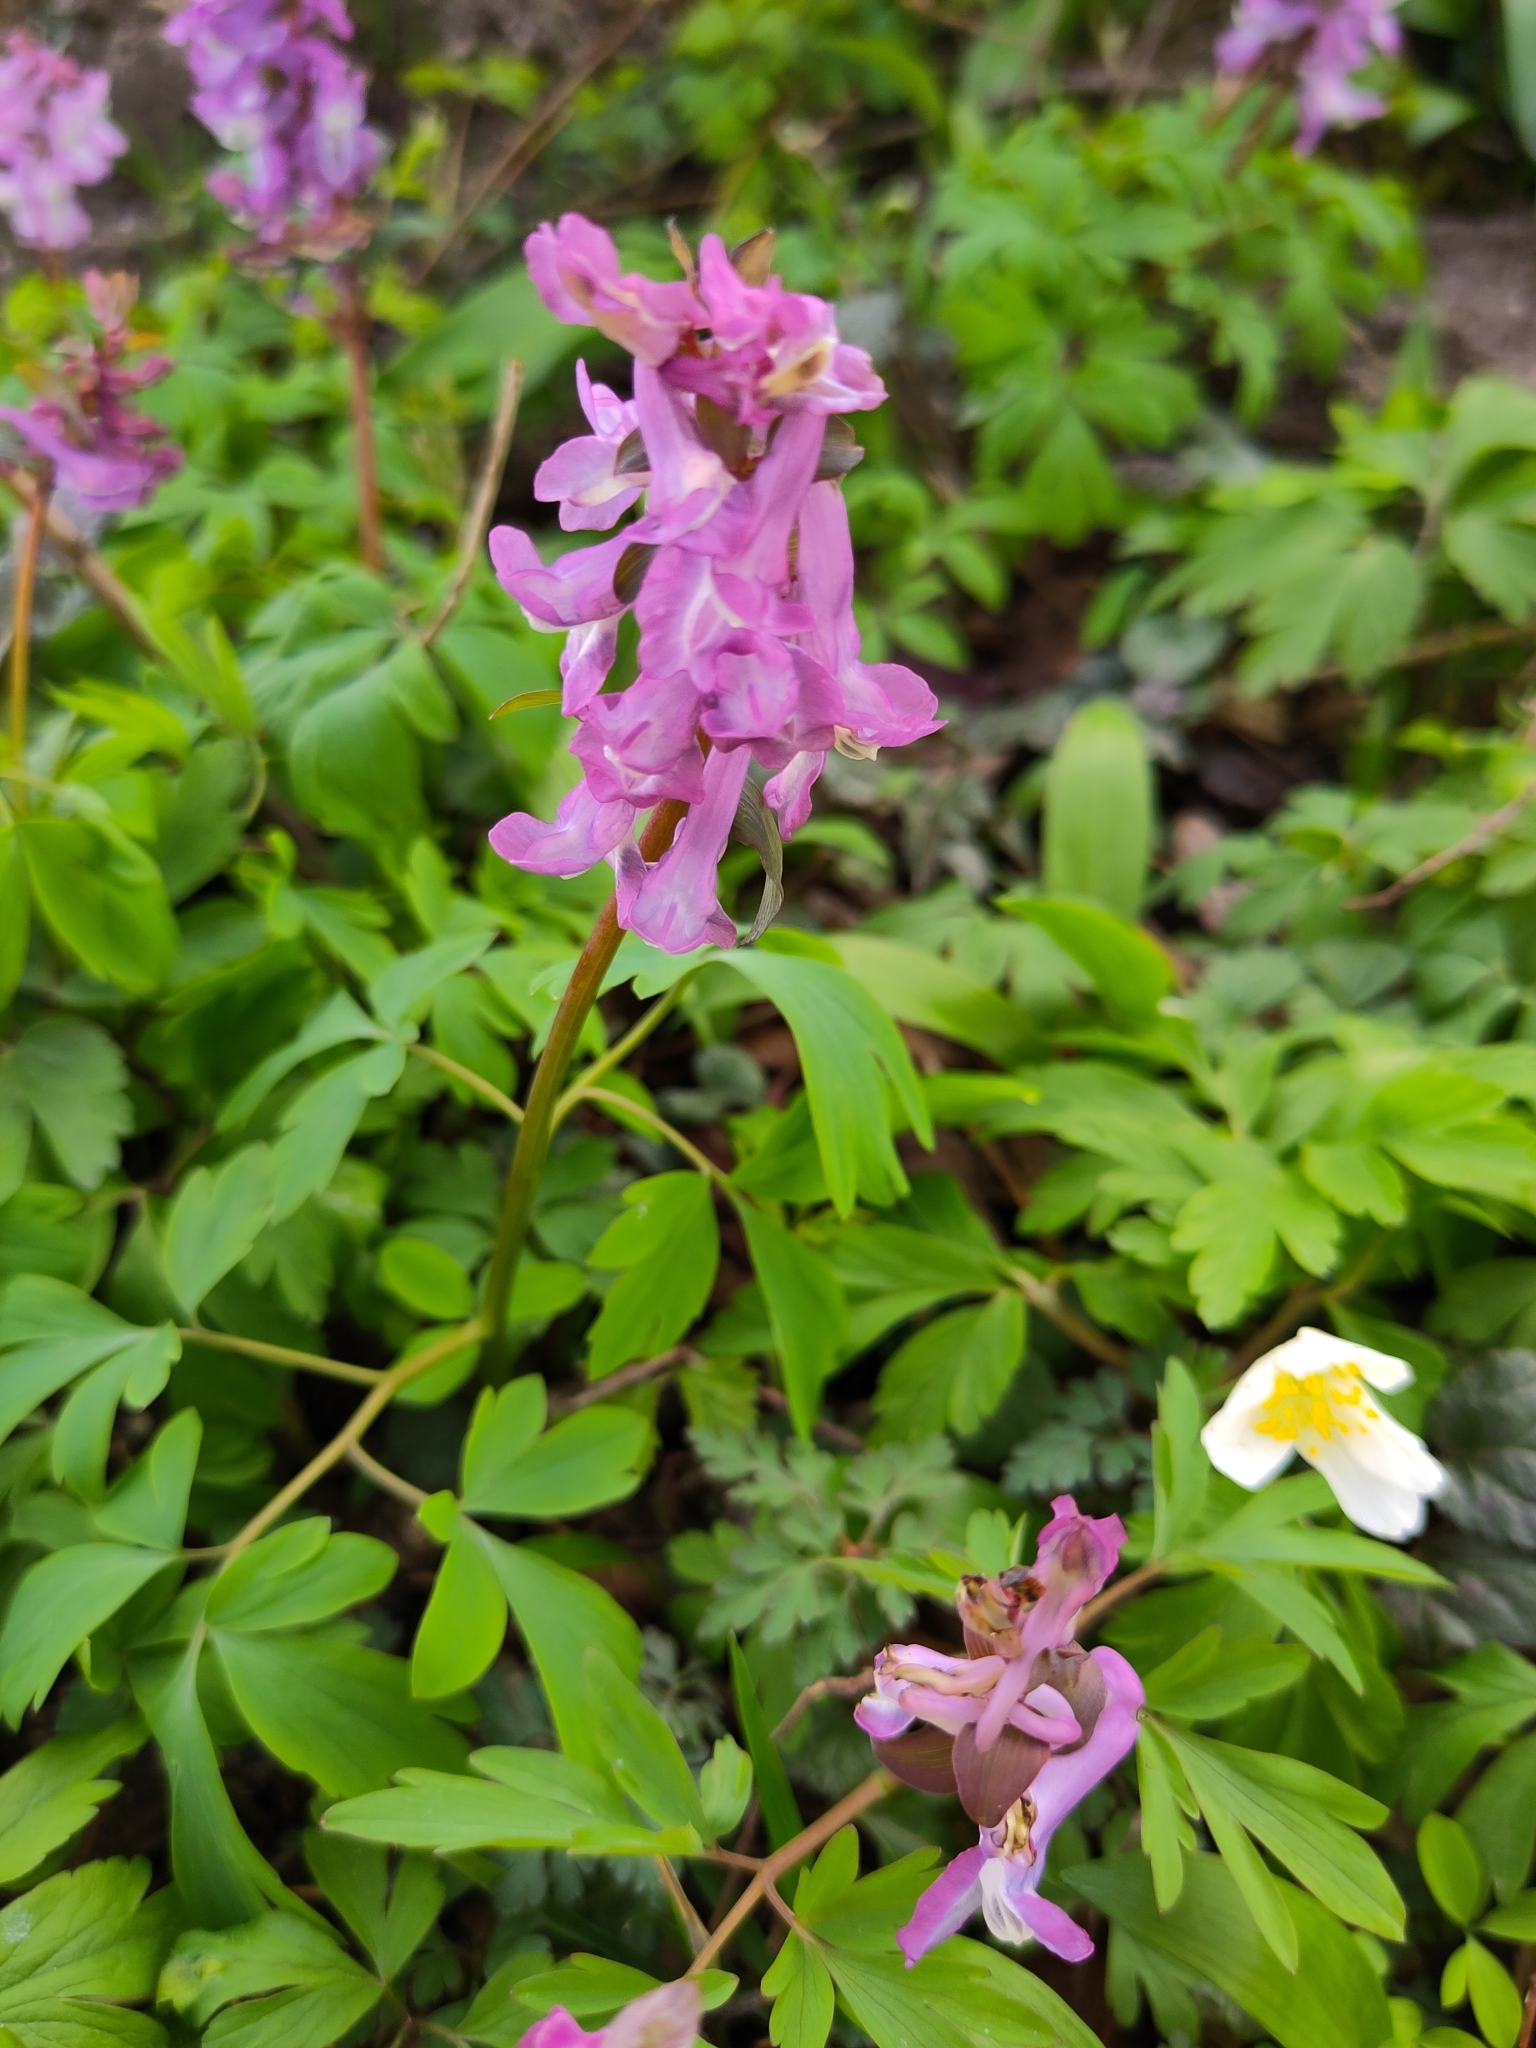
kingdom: Plantae
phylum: Tracheophyta
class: Magnoliopsida
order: Ranunculales
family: Papaveraceae
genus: Corydalis
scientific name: Corydalis cava
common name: Hollowroot
